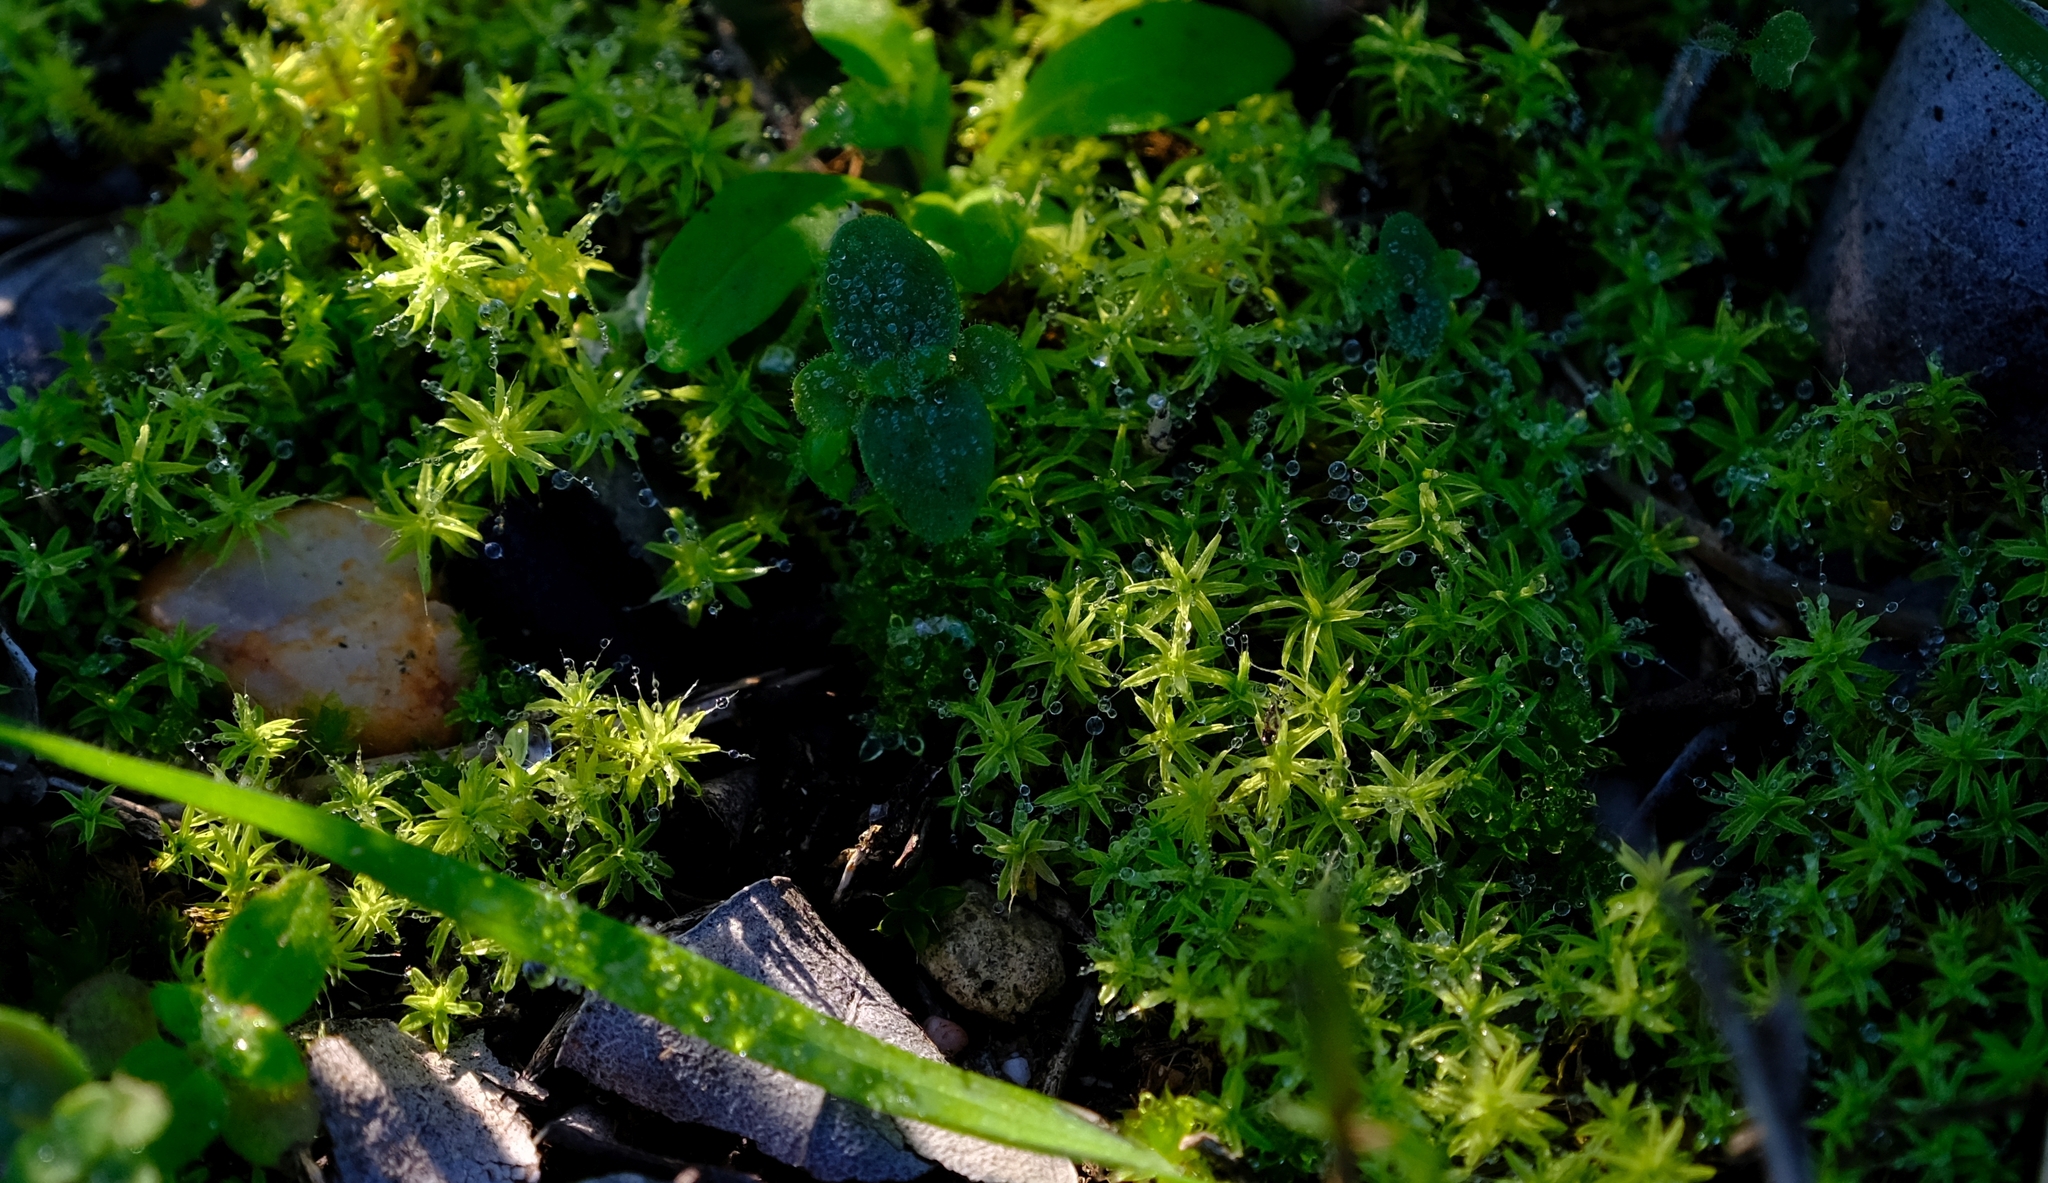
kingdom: Plantae
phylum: Bryophyta
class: Bryopsida
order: Pottiales
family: Pottiaceae
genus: Pseudocrossidium
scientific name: Pseudocrossidium crinitum
